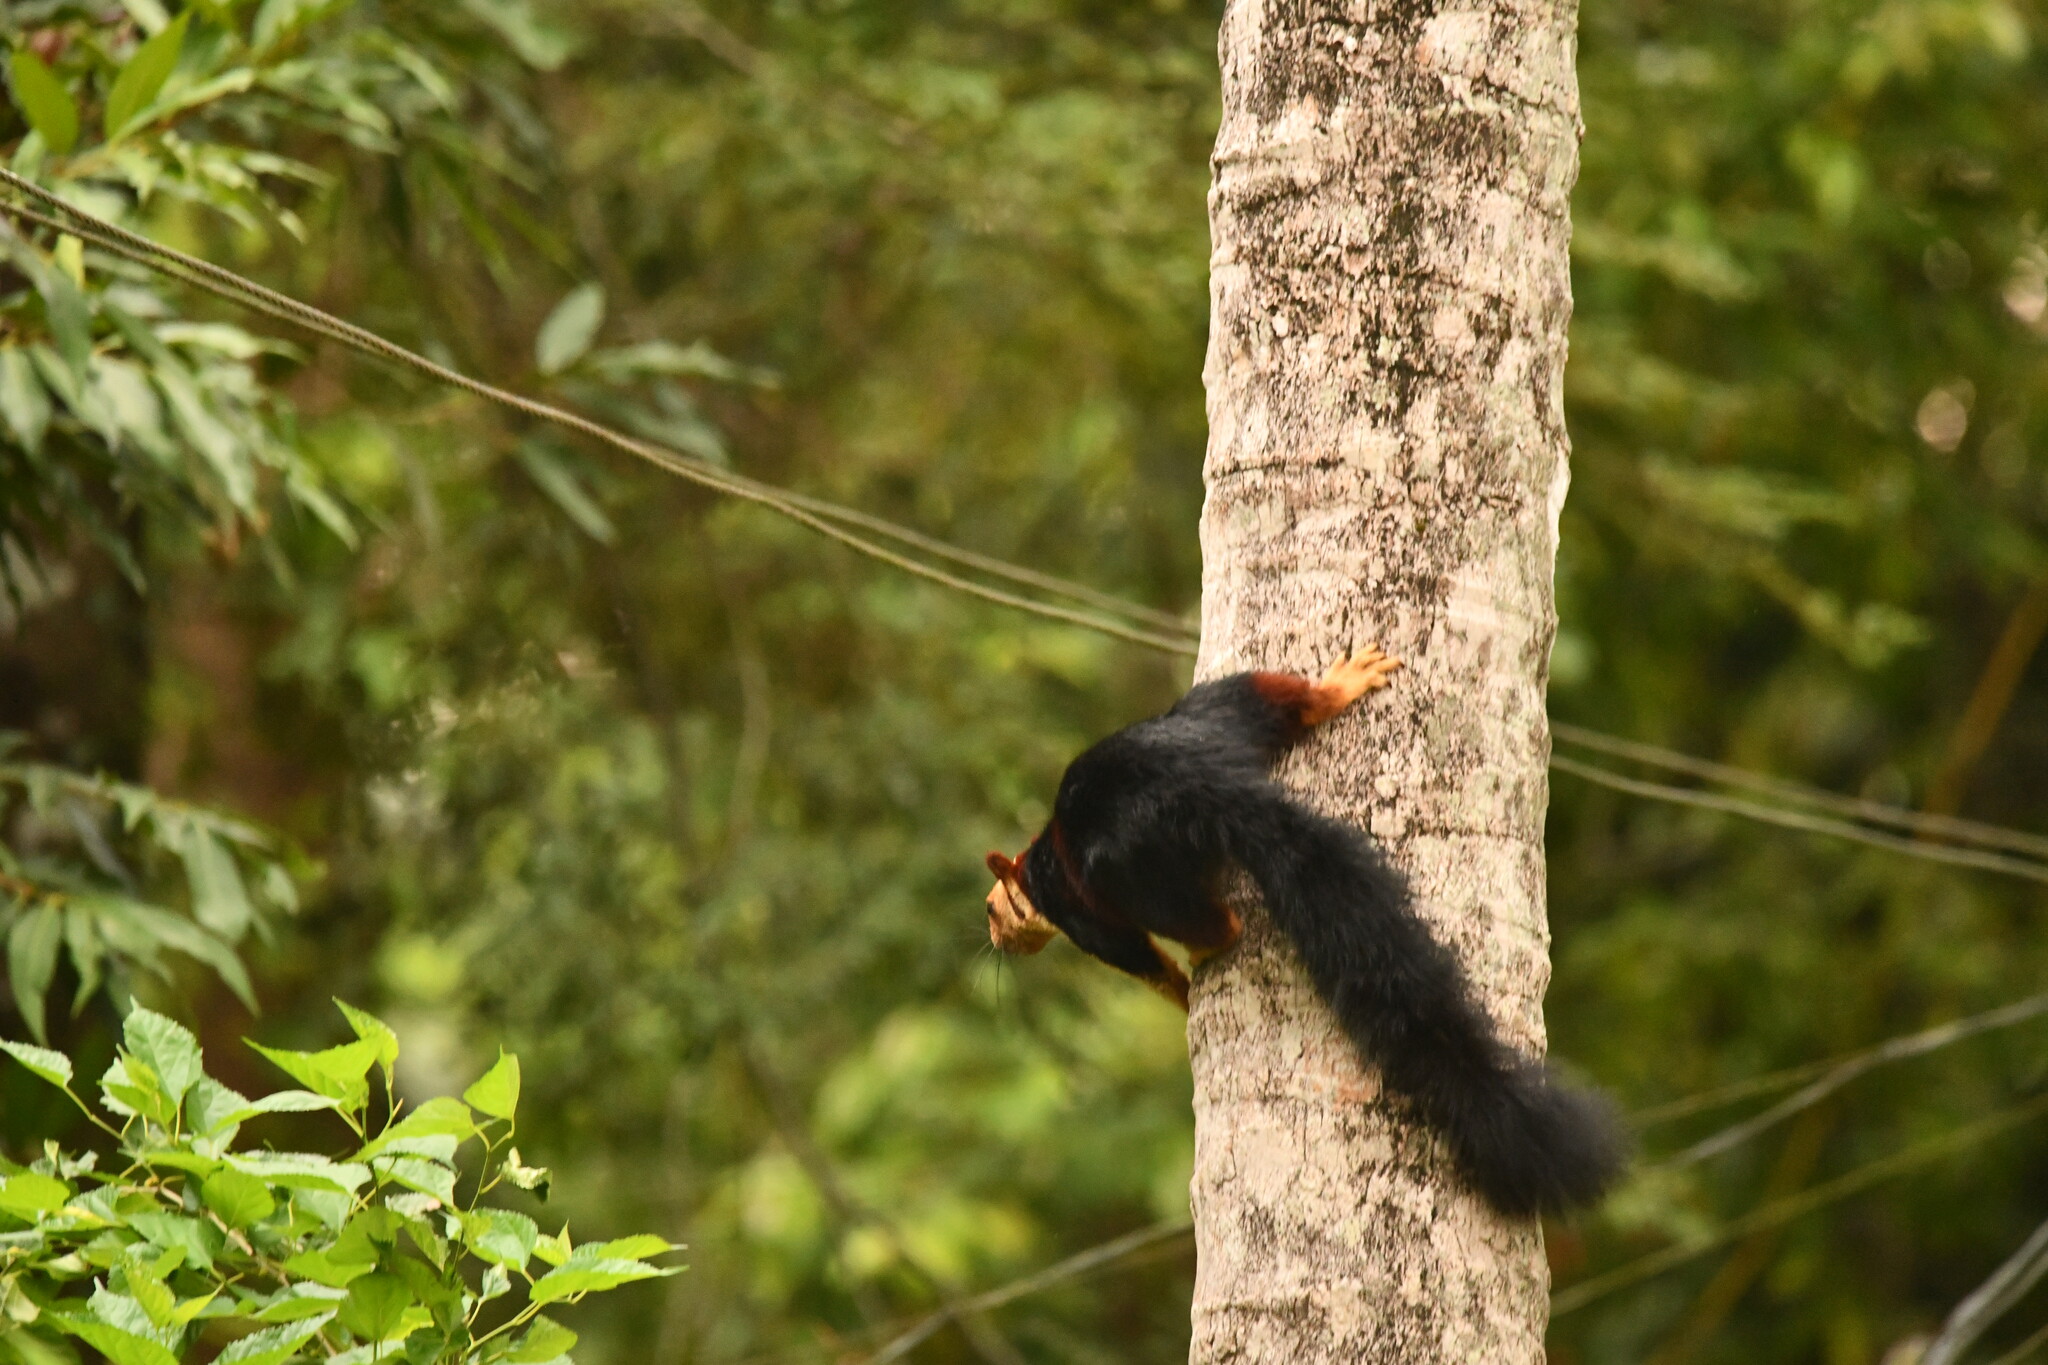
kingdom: Animalia
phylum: Chordata
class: Mammalia
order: Rodentia
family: Sciuridae
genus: Ratufa
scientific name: Ratufa indica
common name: Indian giant squirrel
